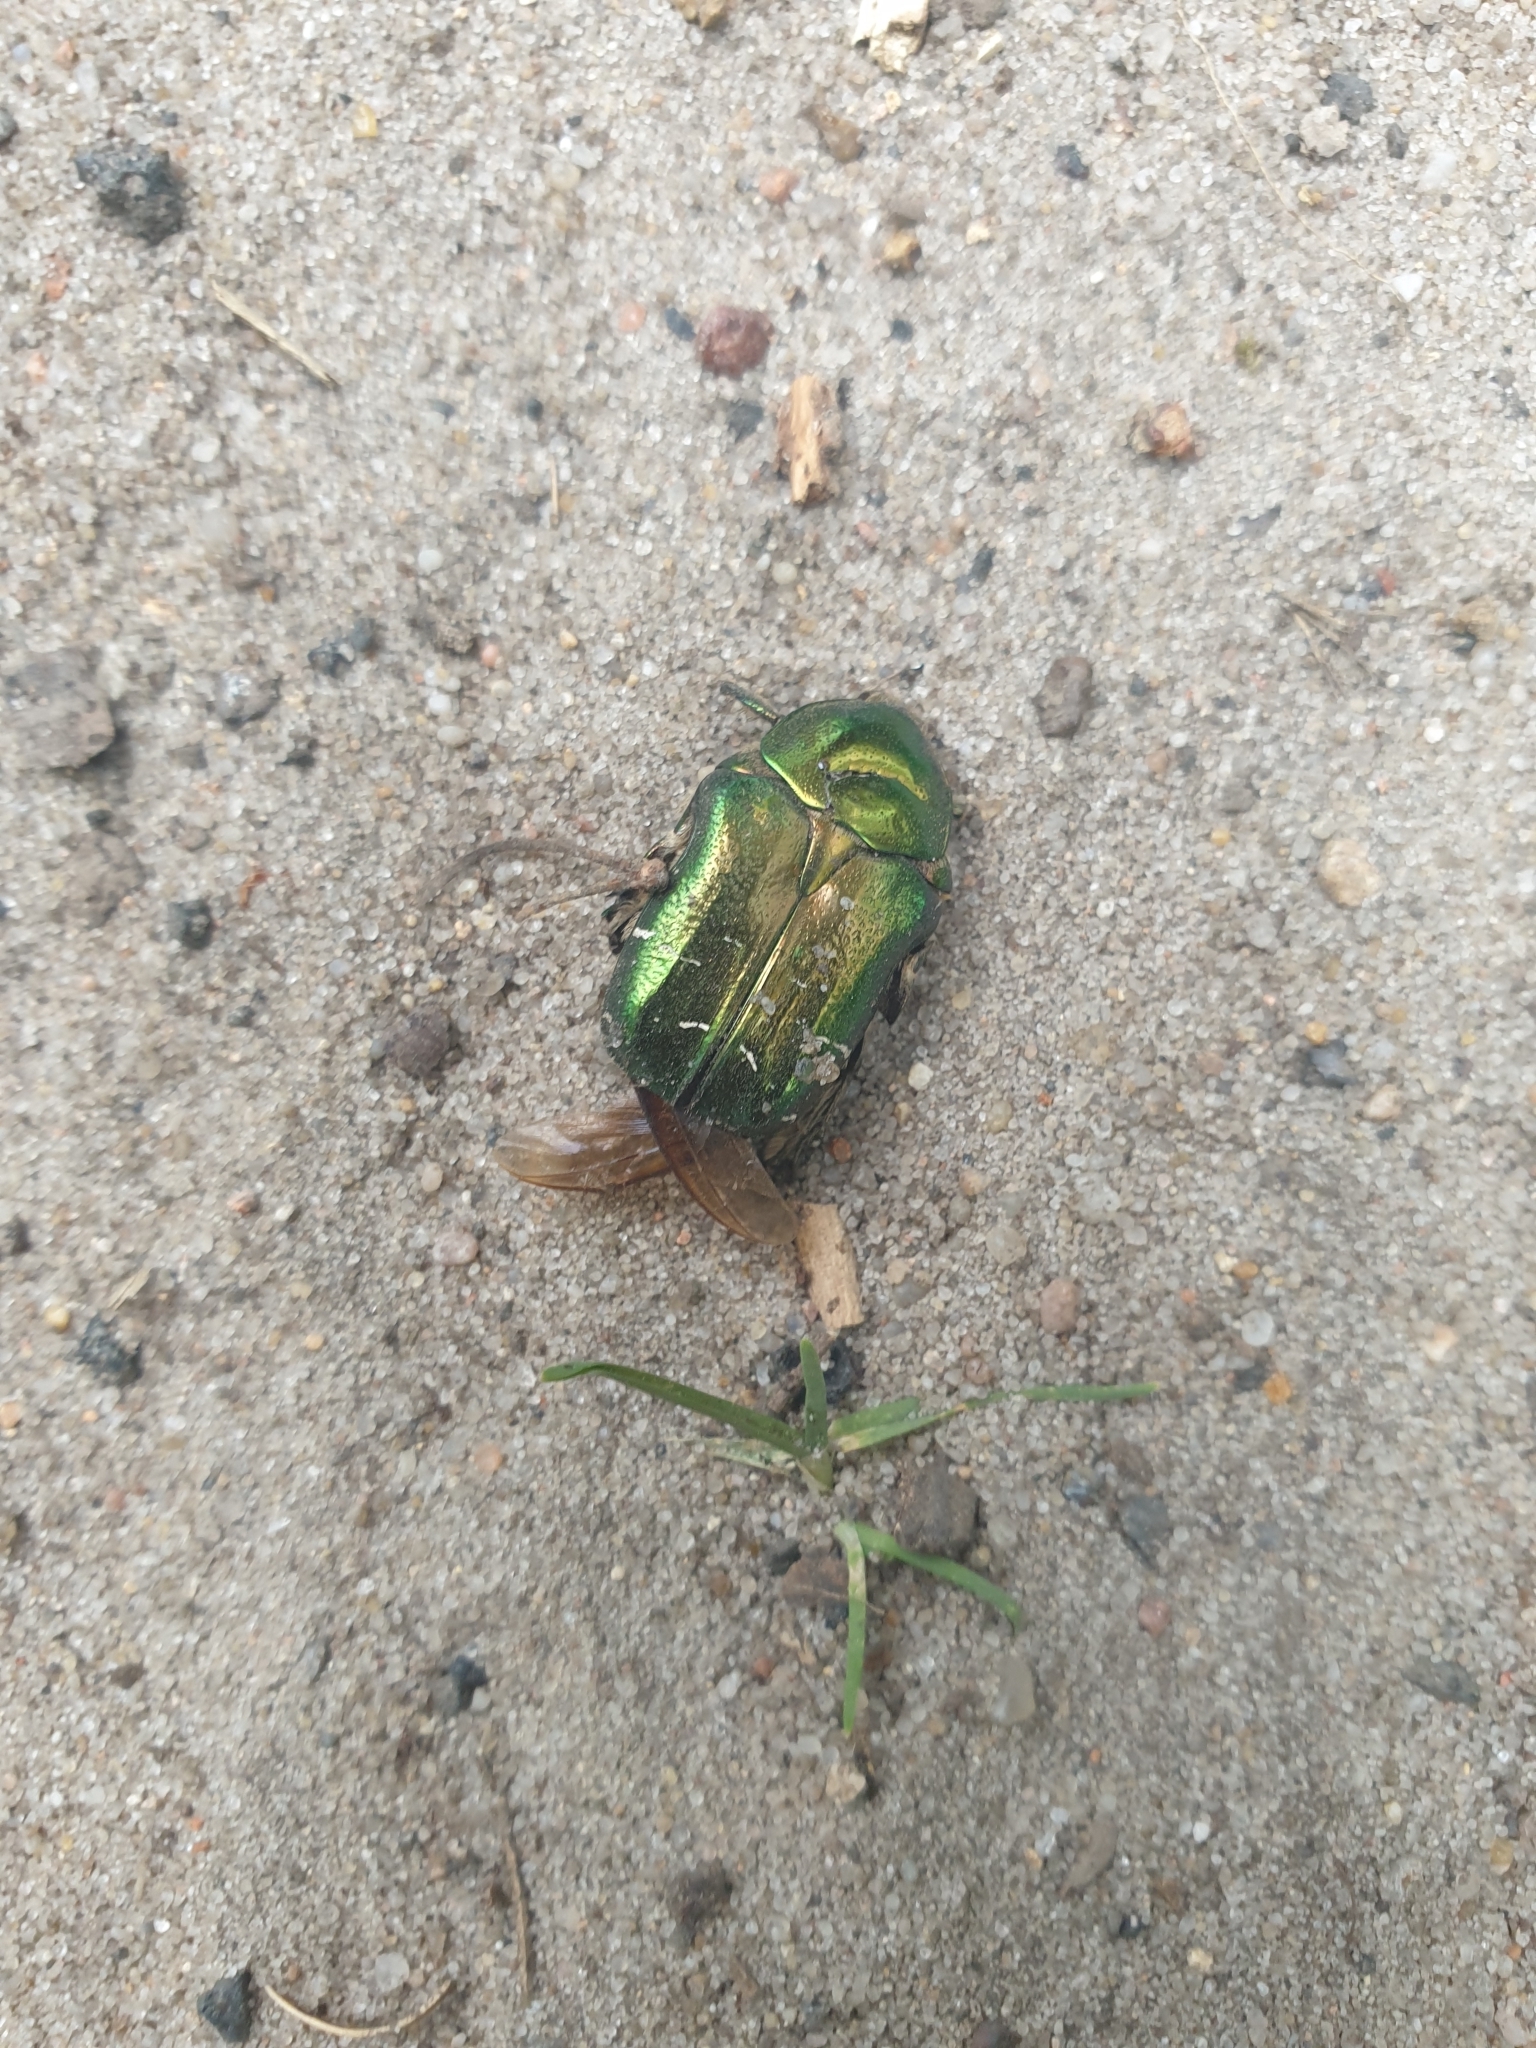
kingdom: Animalia
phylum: Arthropoda
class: Insecta
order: Coleoptera
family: Scarabaeidae
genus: Cetonia
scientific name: Cetonia aurata
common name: Rose chafer
